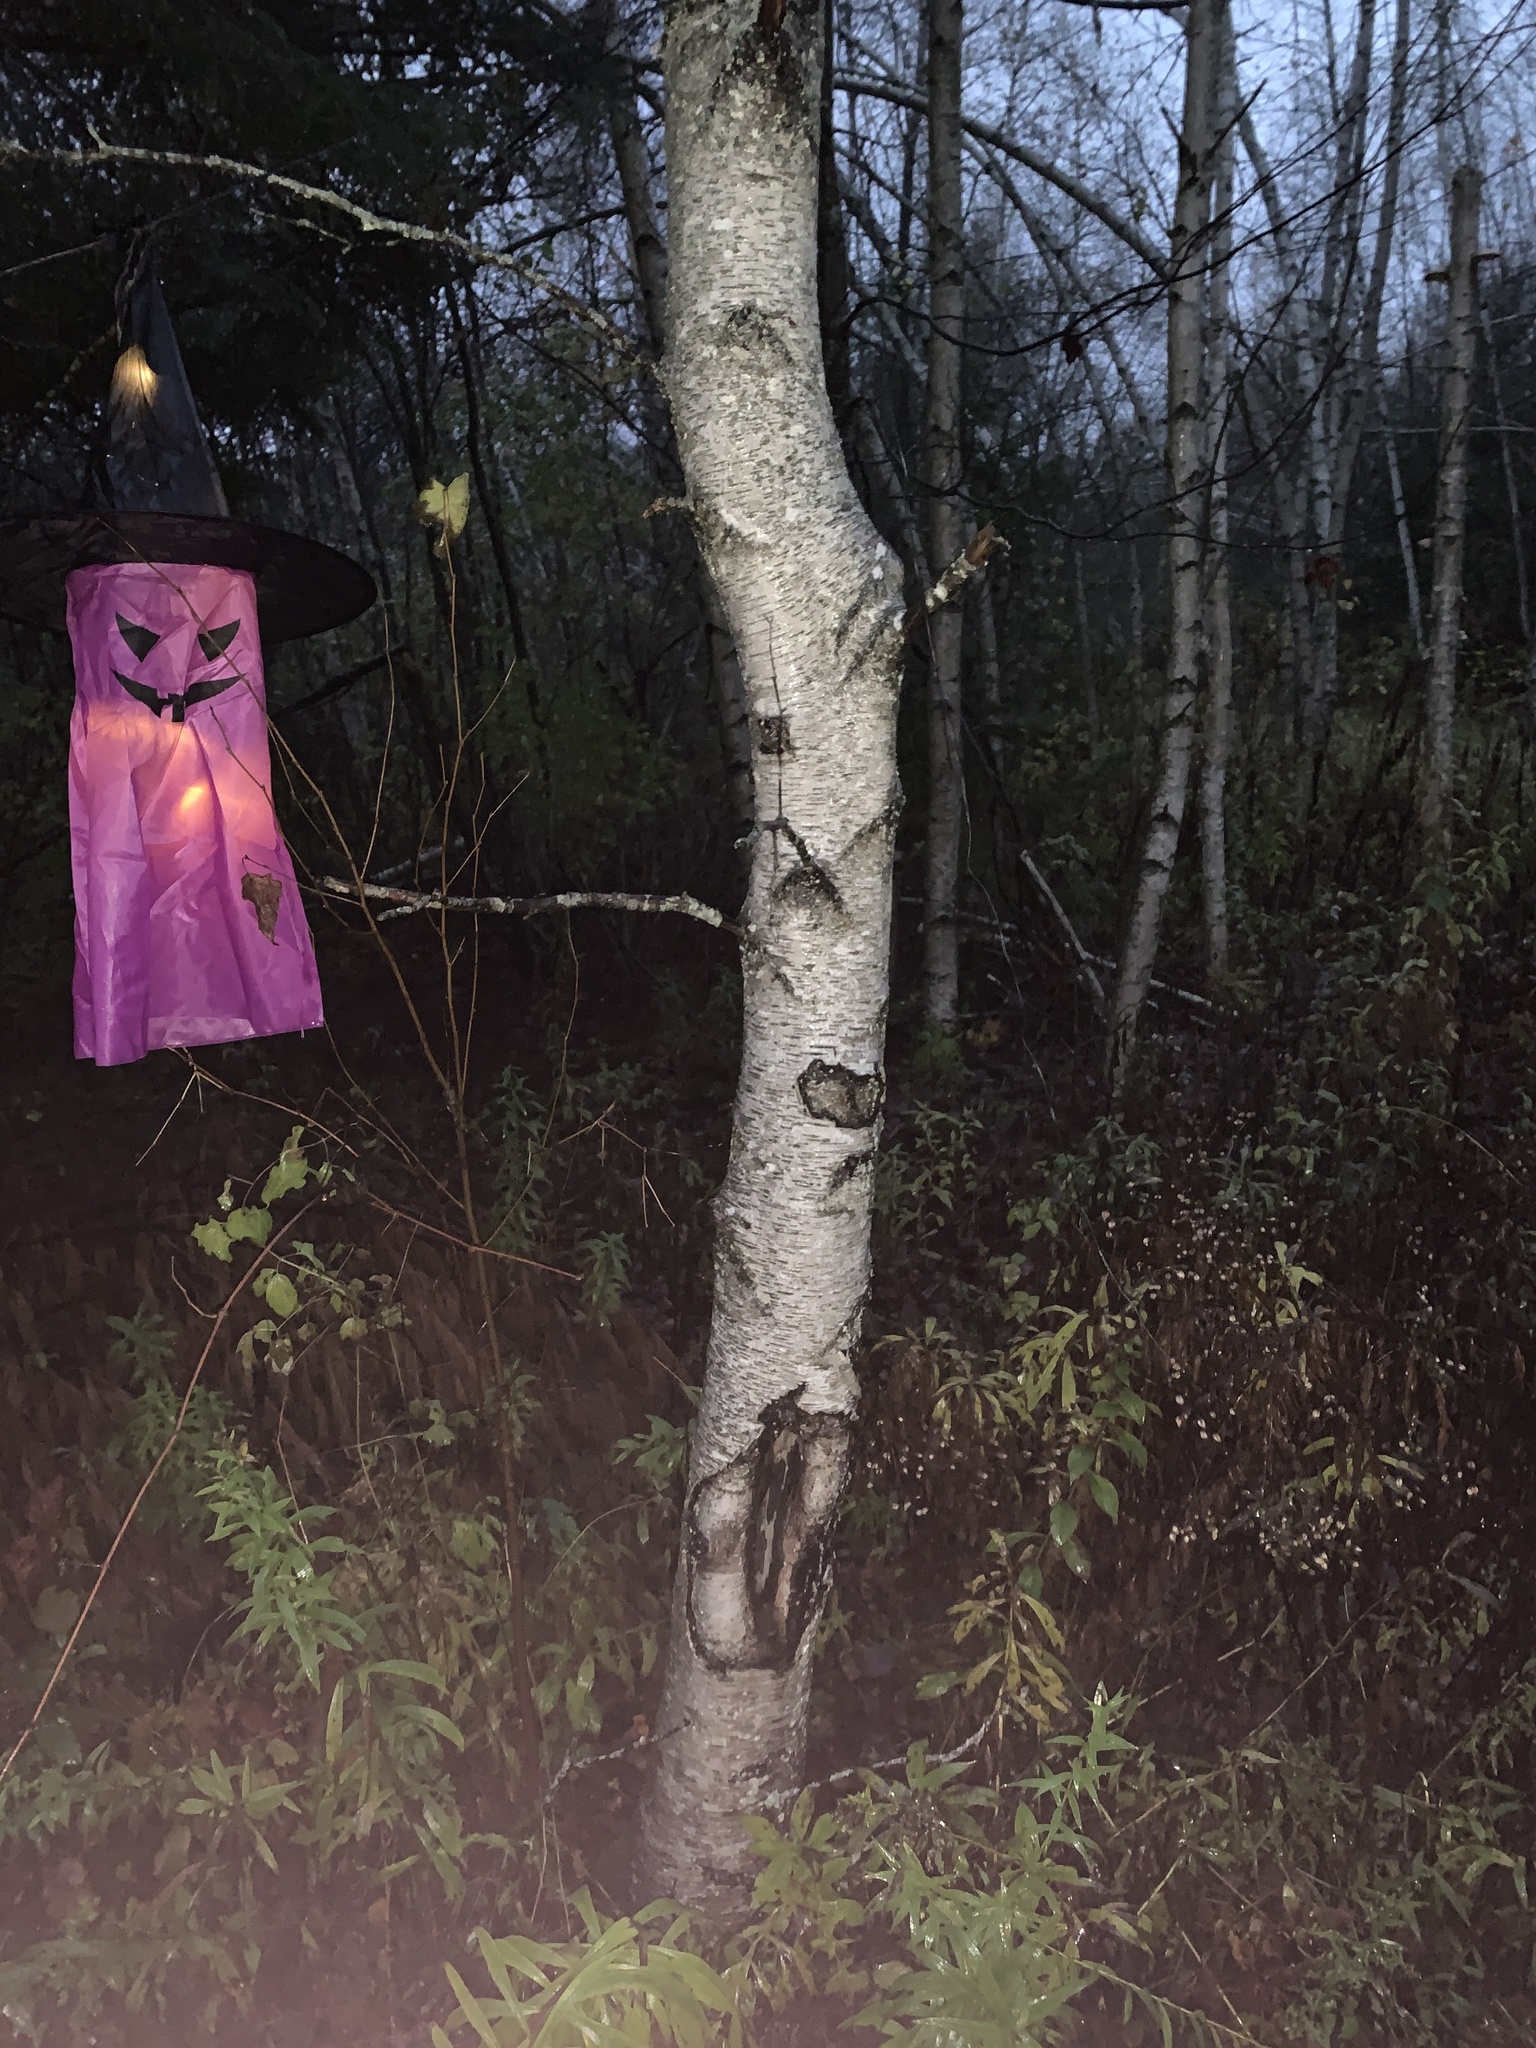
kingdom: Plantae
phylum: Tracheophyta
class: Magnoliopsida
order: Fagales
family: Betulaceae
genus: Betula
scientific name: Betula populifolia
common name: Fire birch
